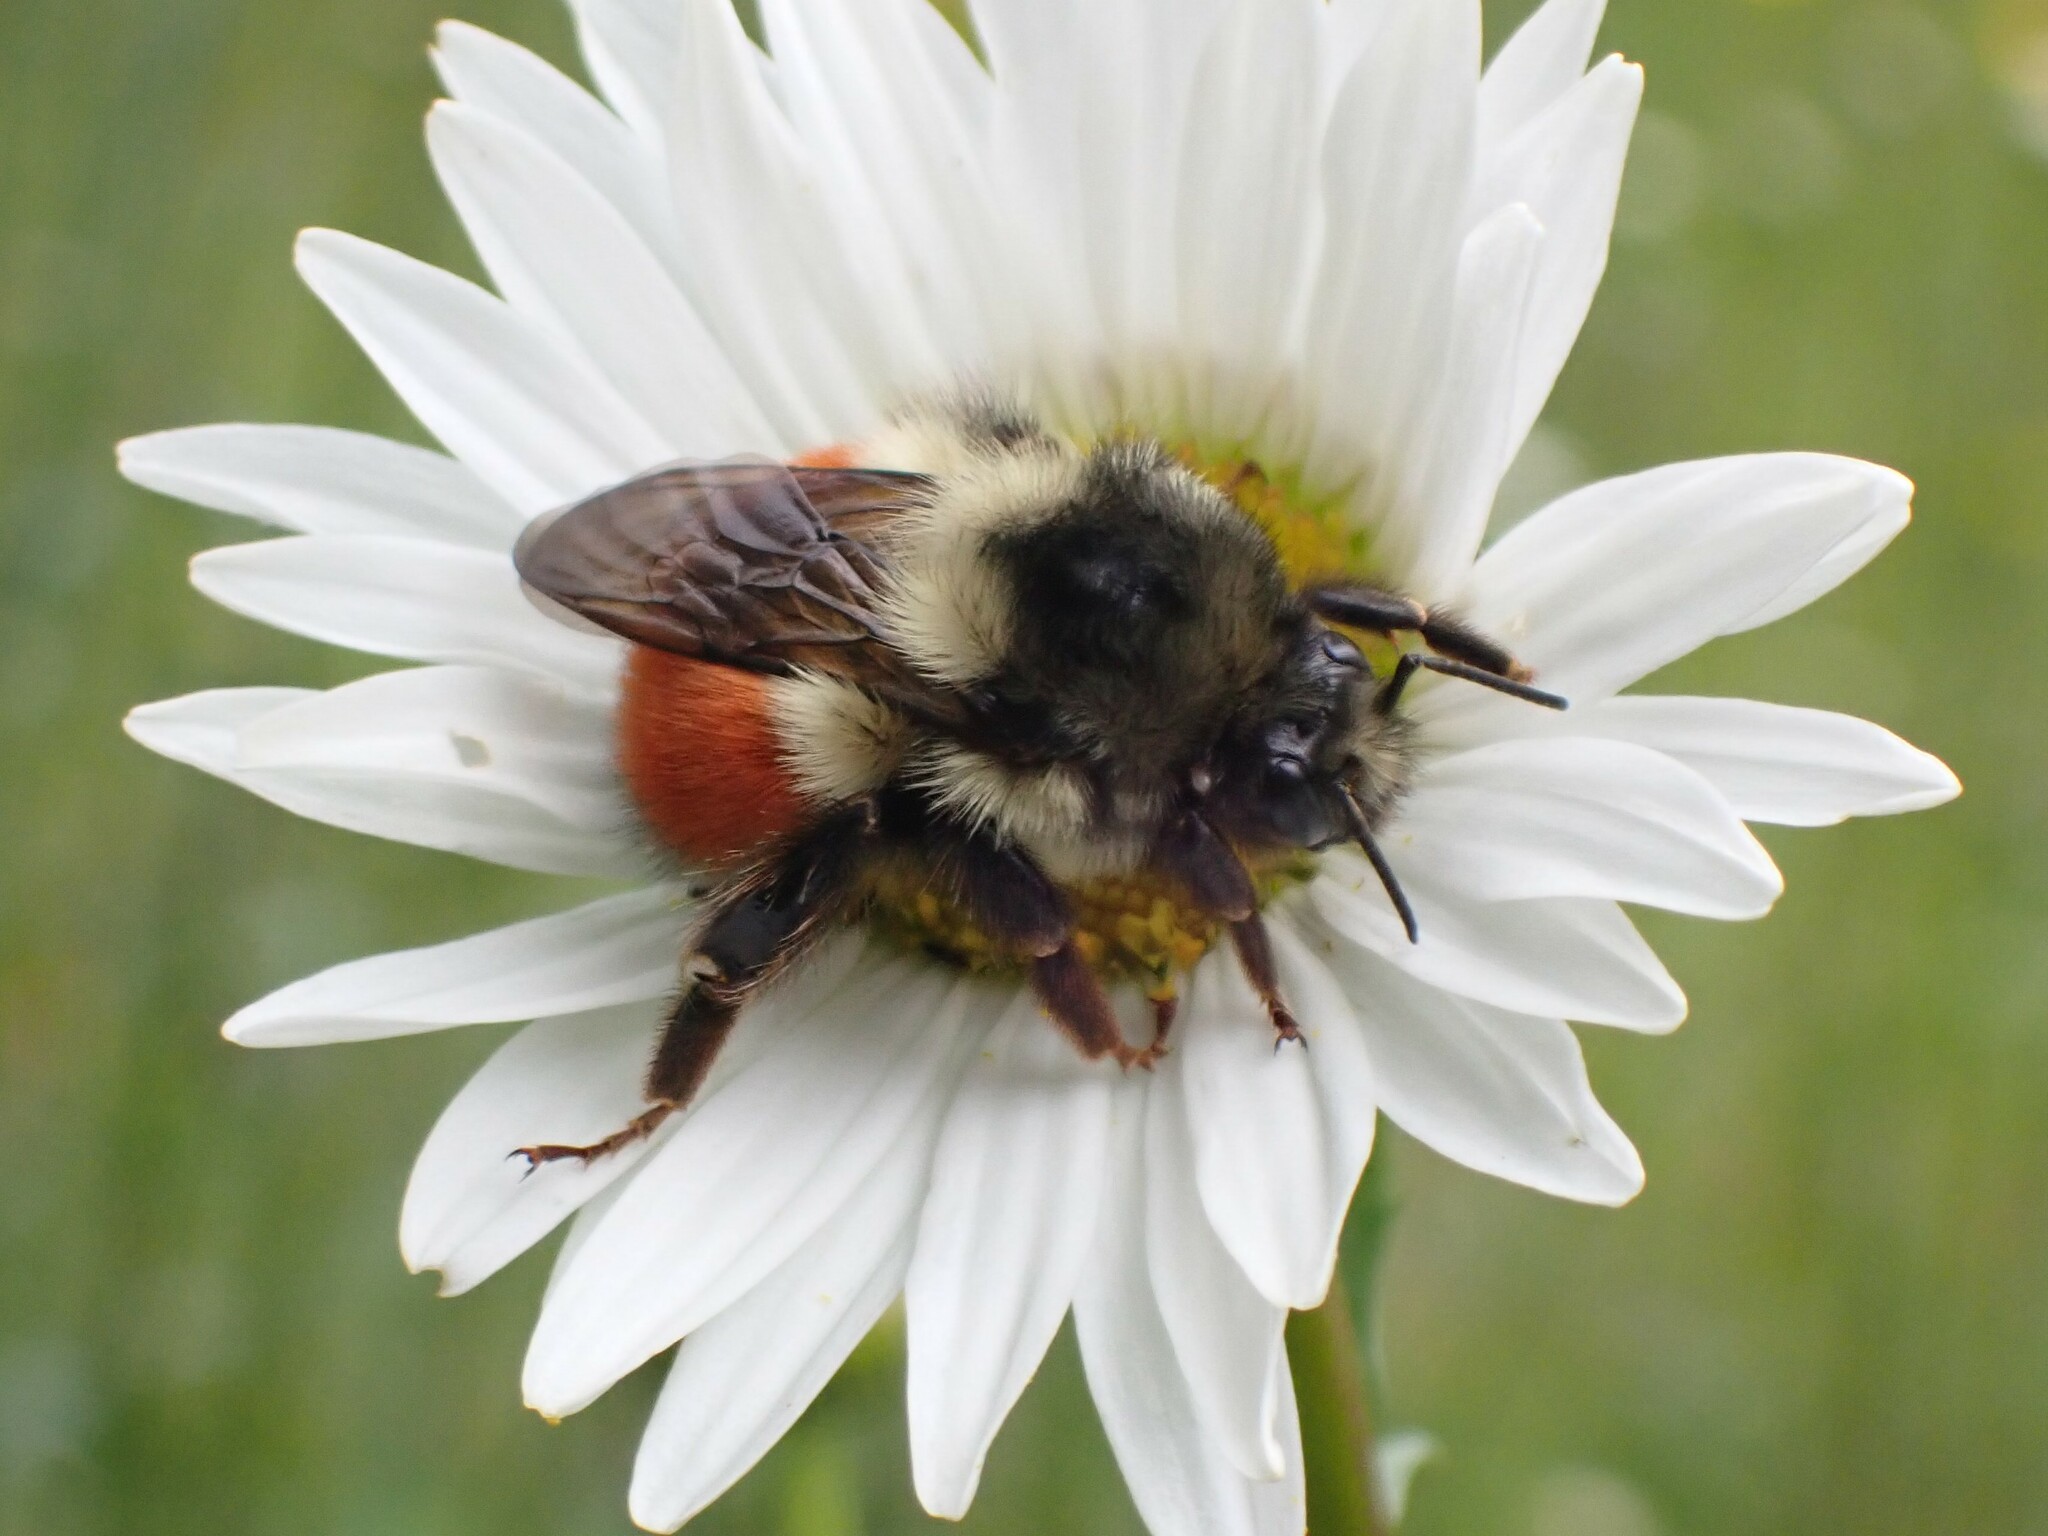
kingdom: Animalia
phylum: Arthropoda
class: Insecta
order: Hymenoptera
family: Apidae
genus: Bombus
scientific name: Bombus melanopygus
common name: Black tail bumble bee
